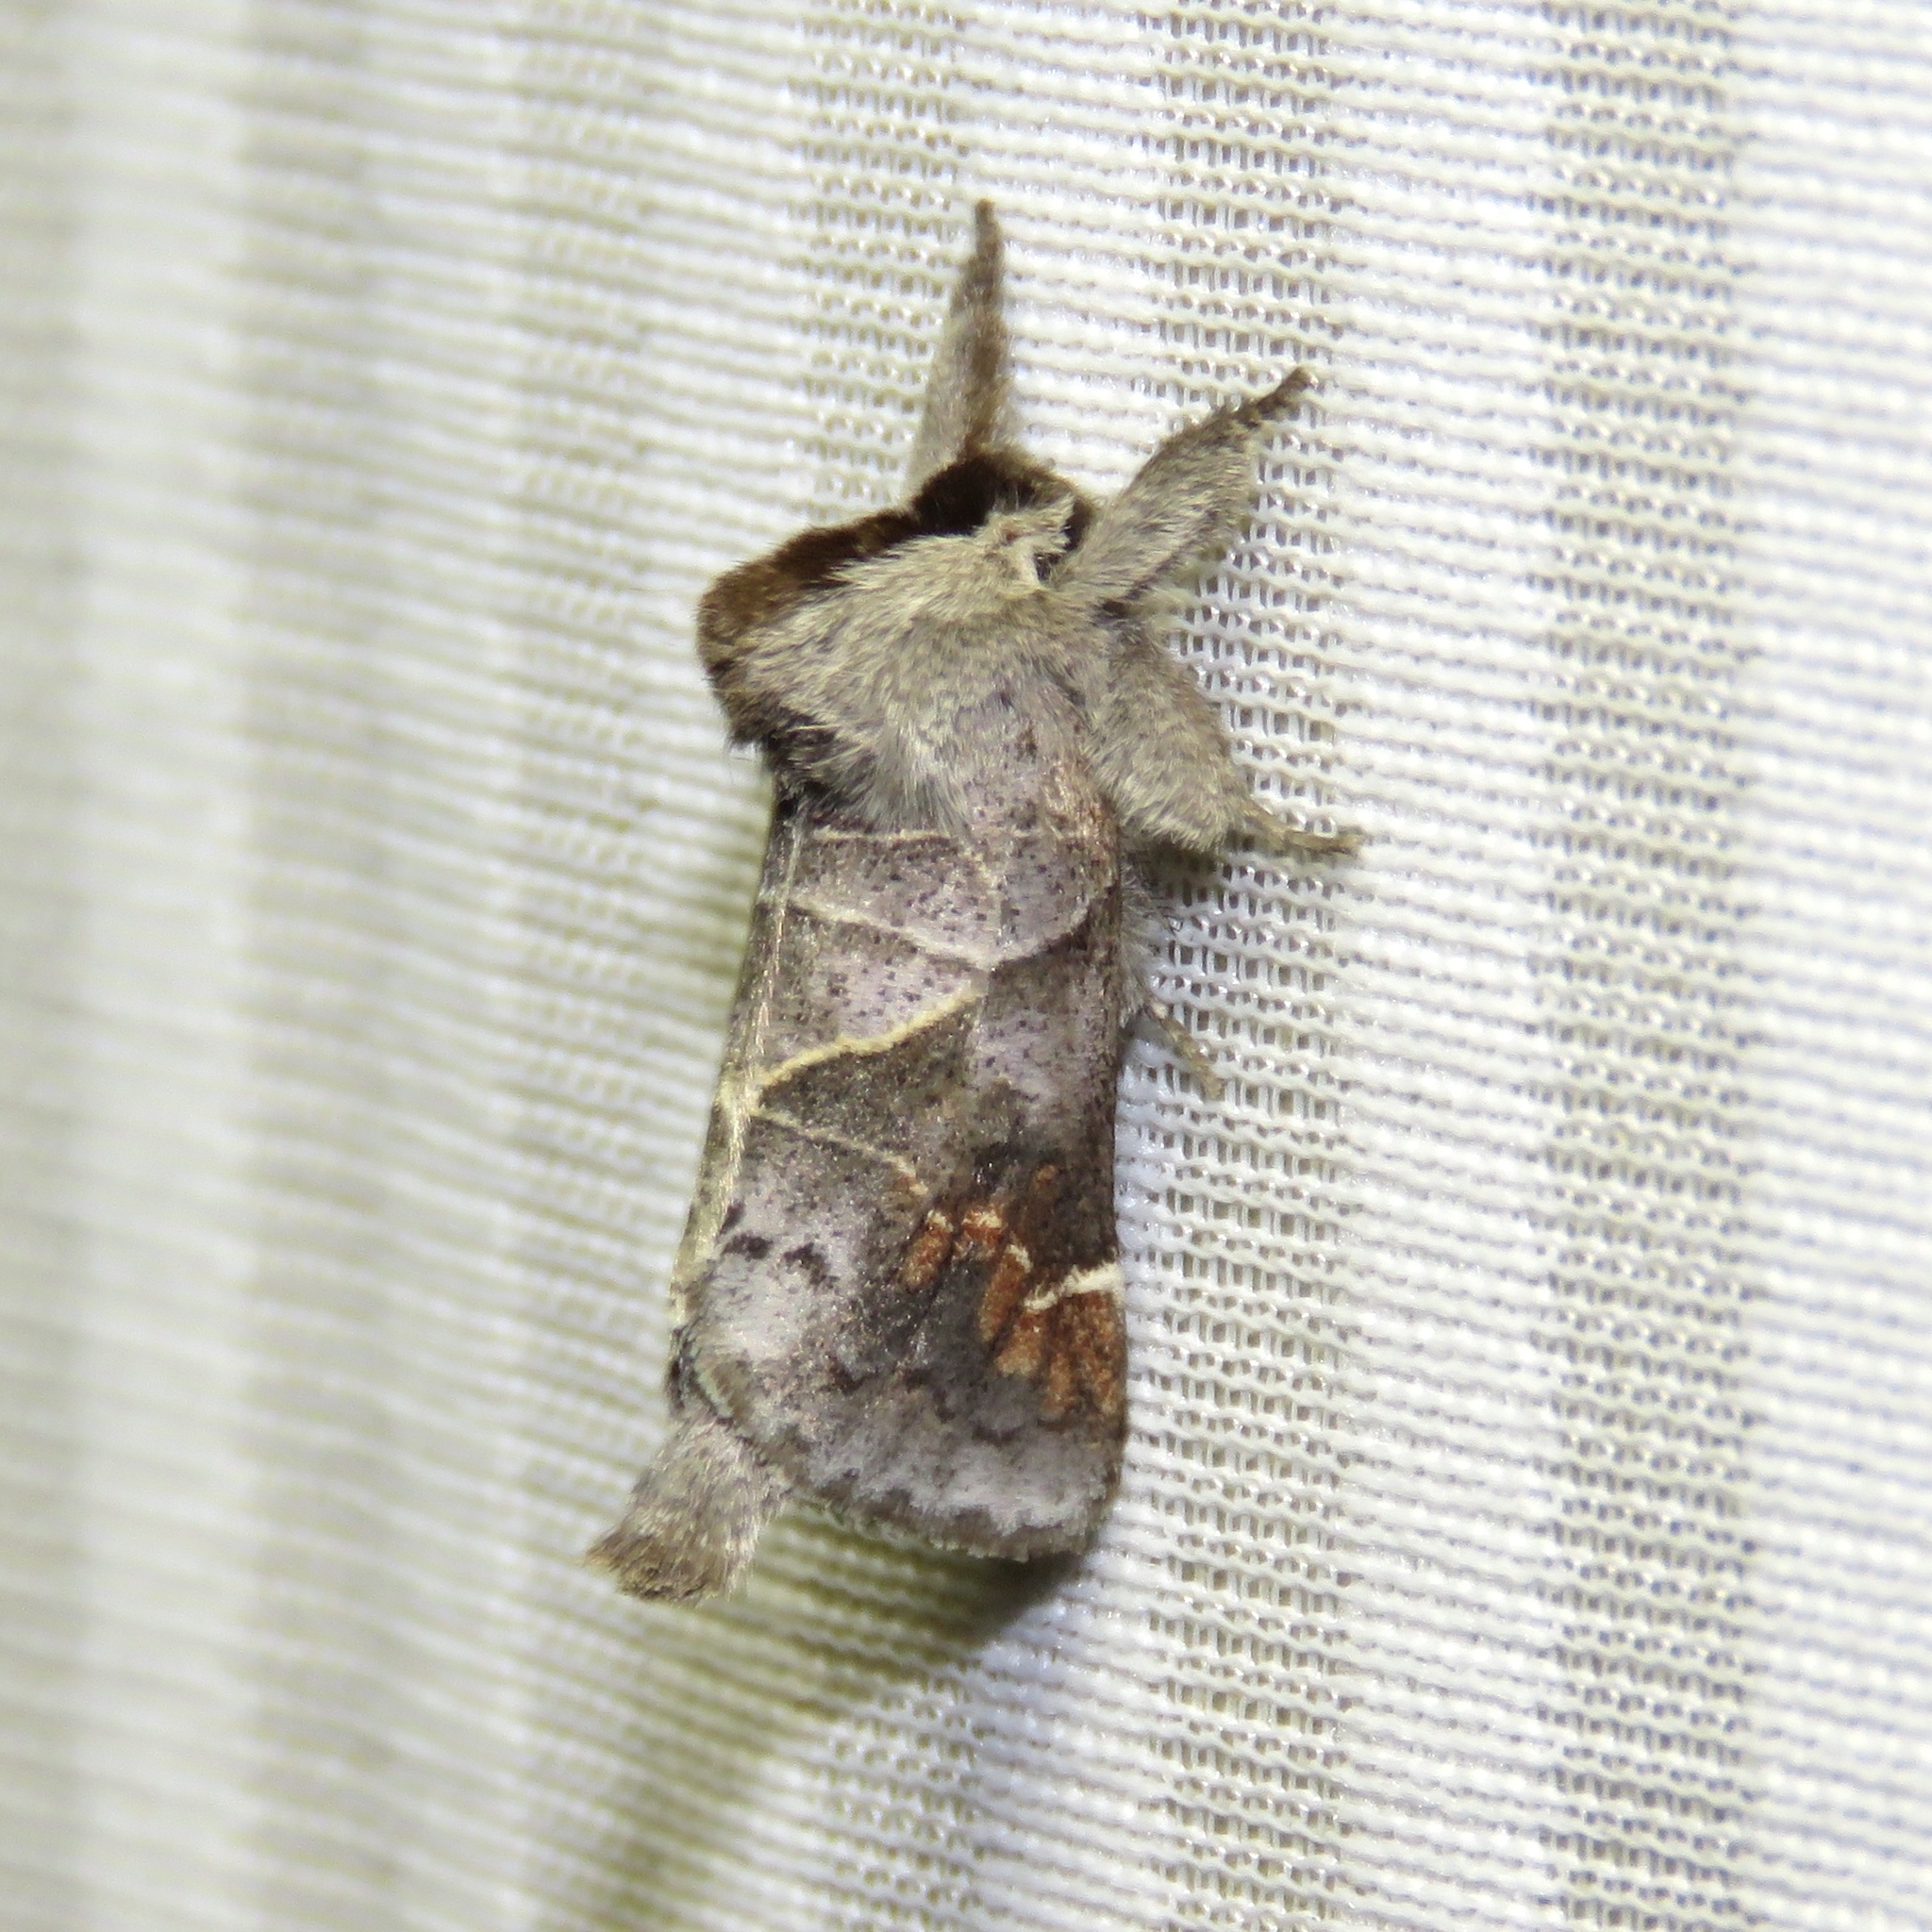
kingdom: Animalia
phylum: Arthropoda
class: Insecta
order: Lepidoptera
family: Notodontidae
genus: Clostera
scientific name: Clostera apicalis
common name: Apical prominent
